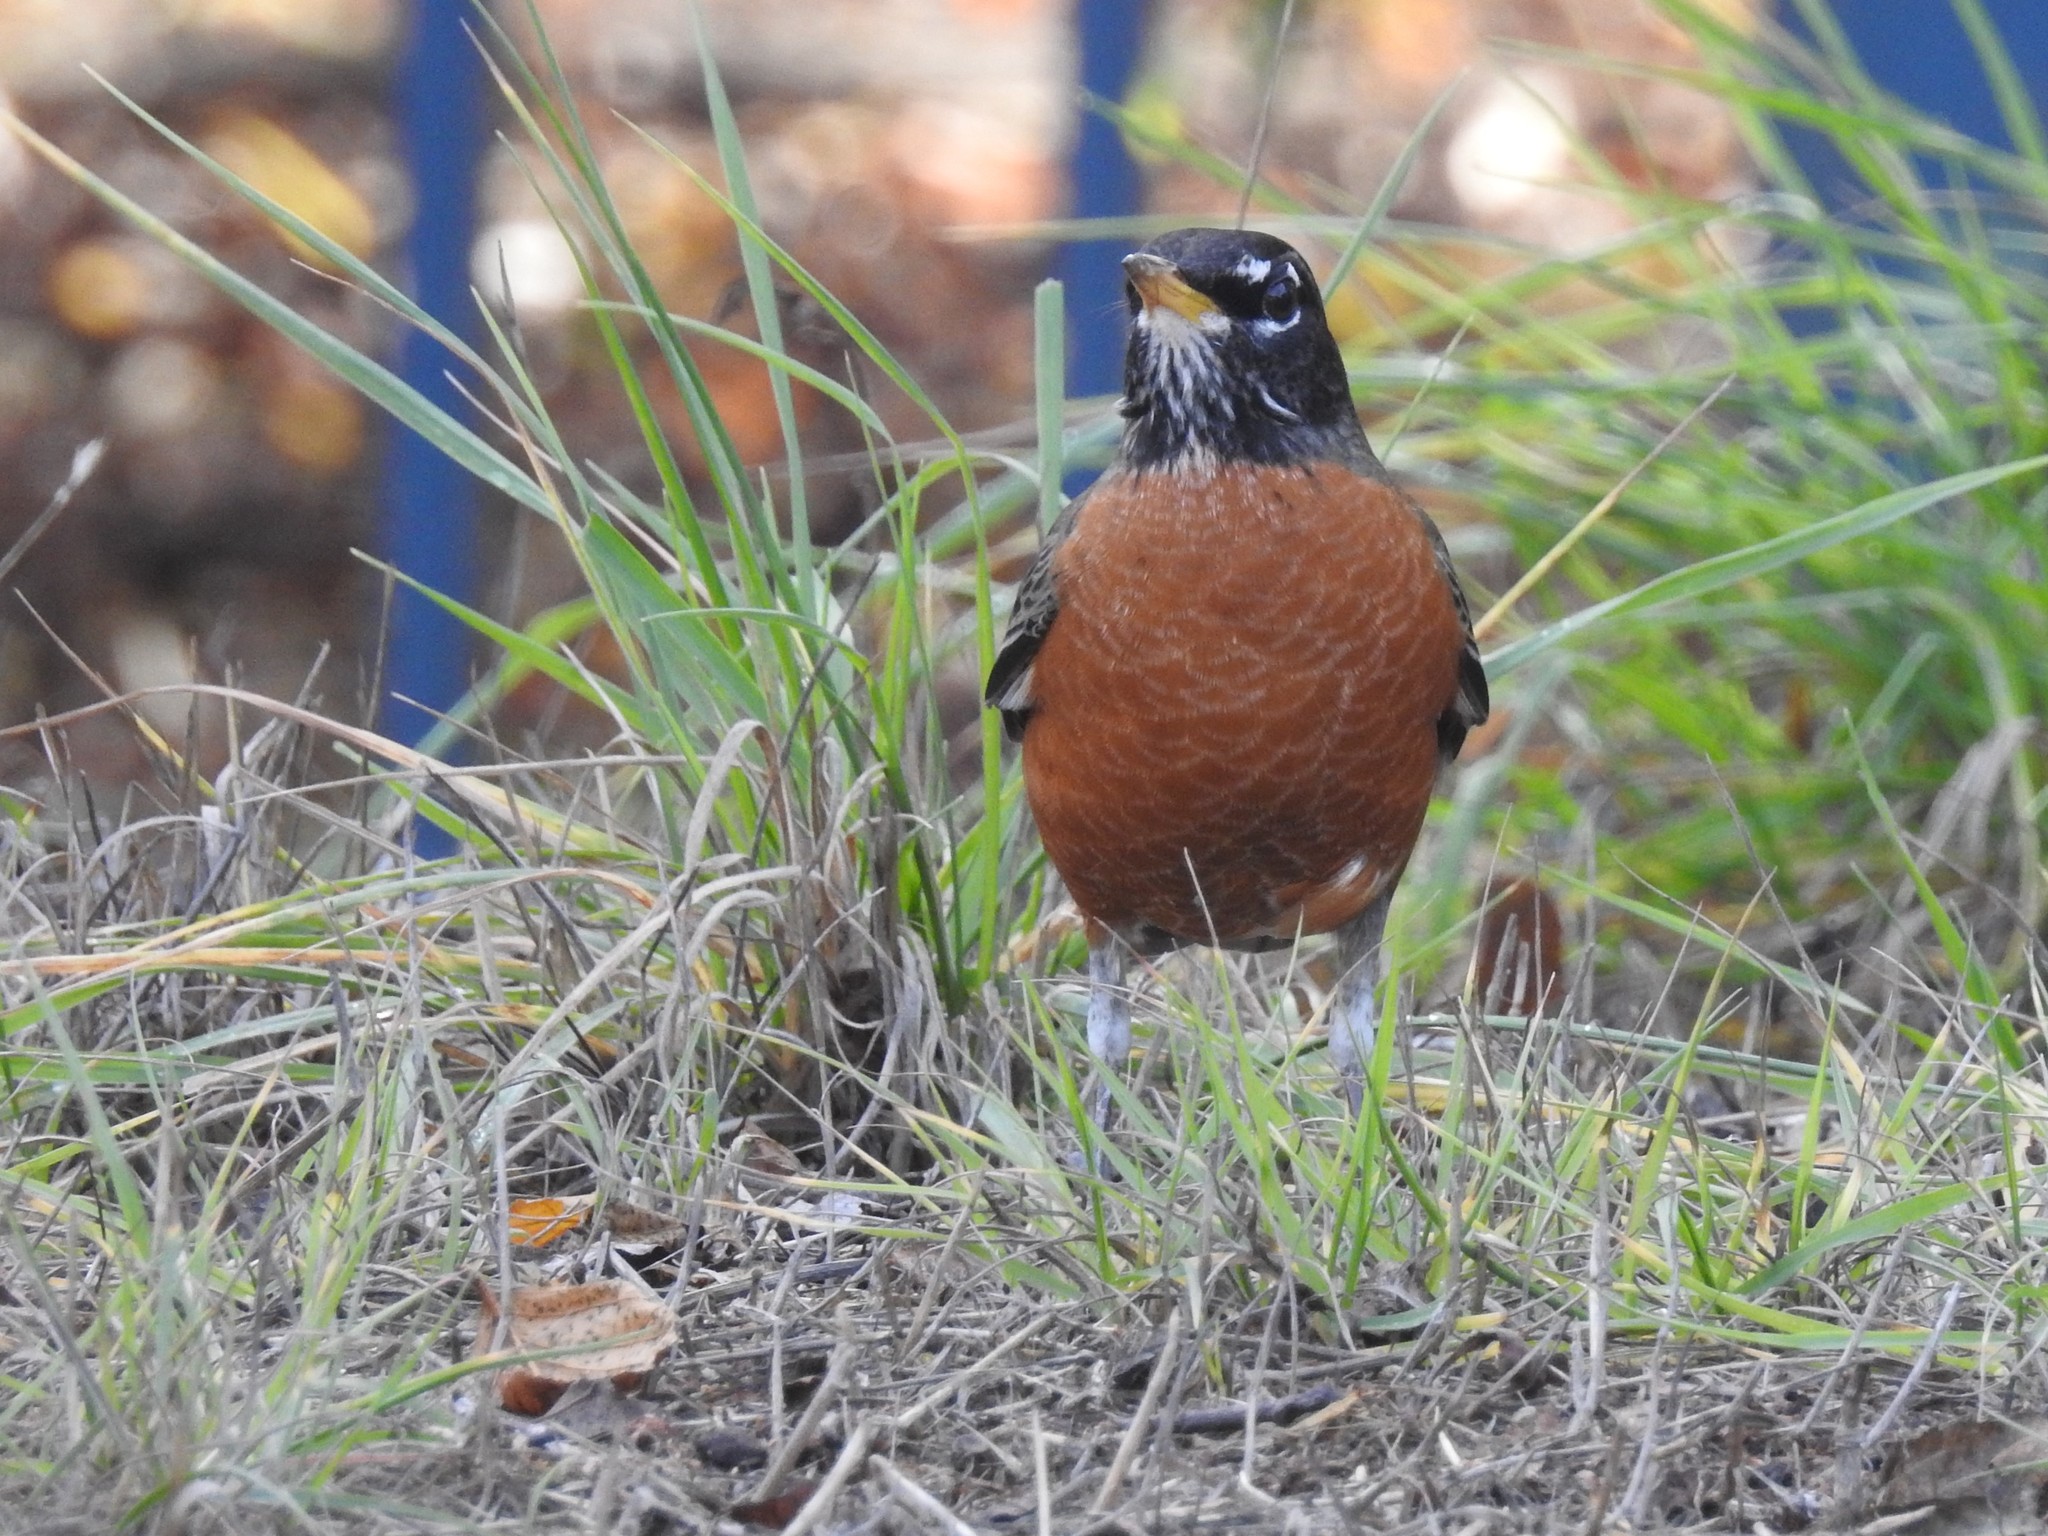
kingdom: Animalia
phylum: Chordata
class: Aves
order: Passeriformes
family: Turdidae
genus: Turdus
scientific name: Turdus migratorius
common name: American robin
